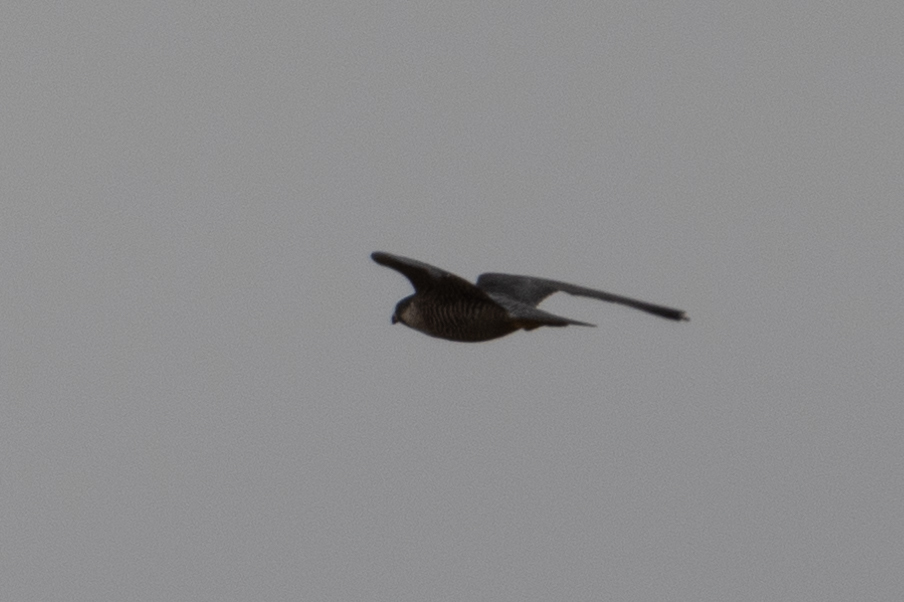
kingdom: Animalia
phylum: Chordata
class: Aves
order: Falconiformes
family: Falconidae
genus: Falco
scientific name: Falco peregrinus
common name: Peregrine falcon
